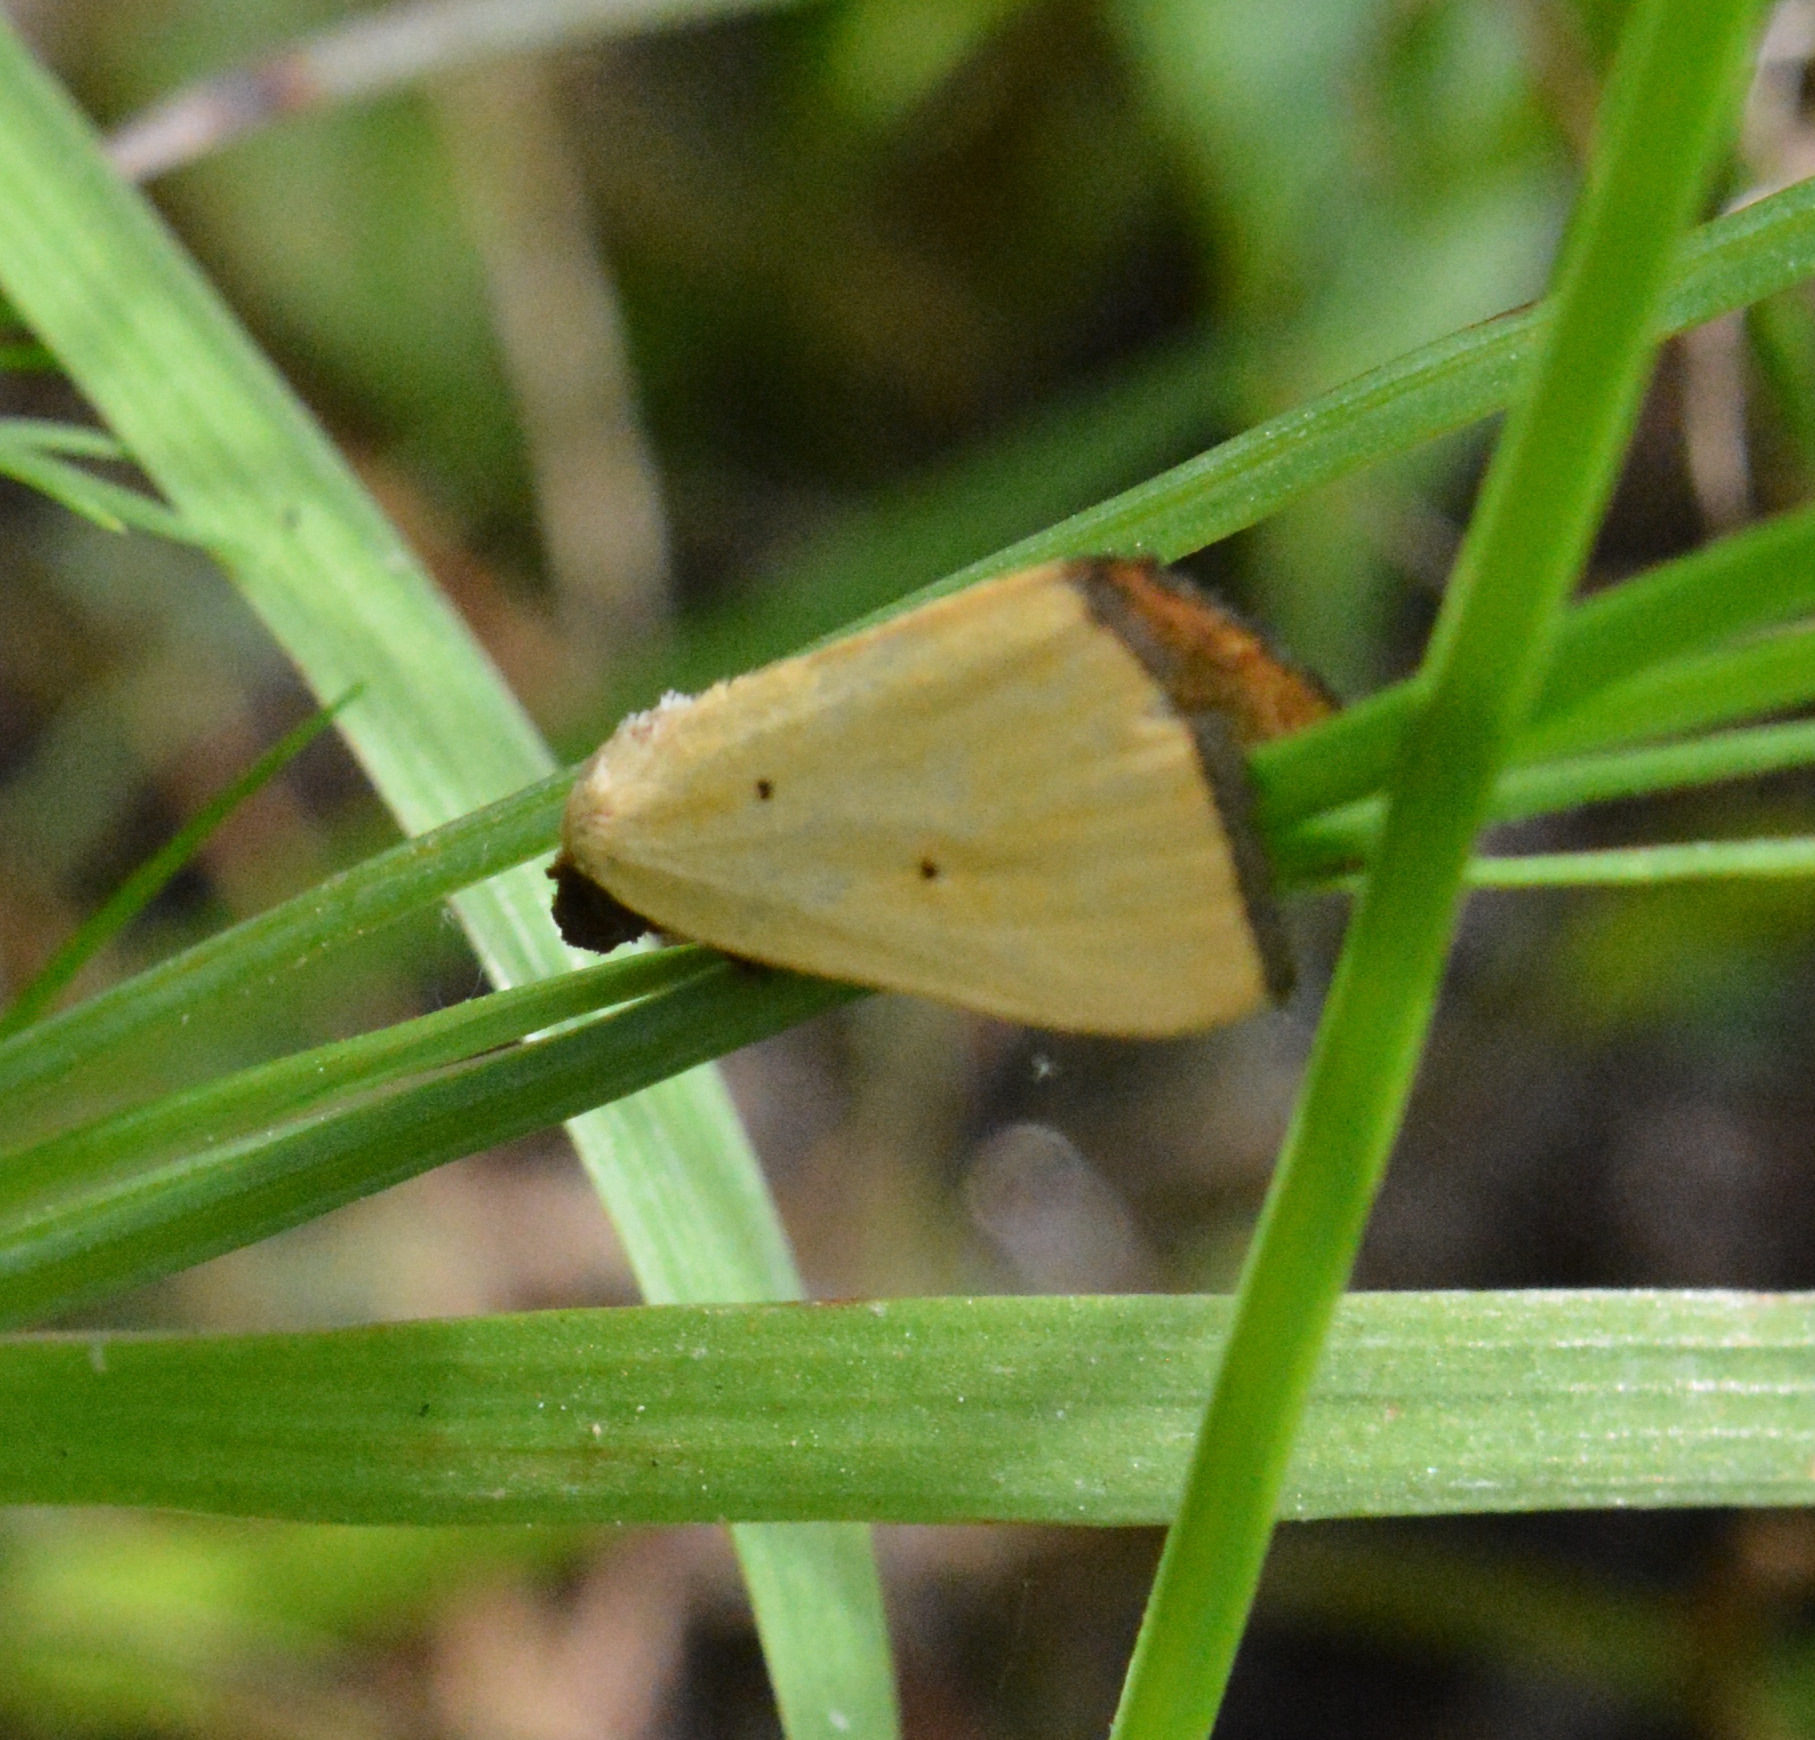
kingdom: Animalia
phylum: Arthropoda
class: Insecta
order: Lepidoptera
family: Noctuidae
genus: Marimatha
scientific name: Marimatha nigrofimbria
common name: Black-bordered lemon moth
